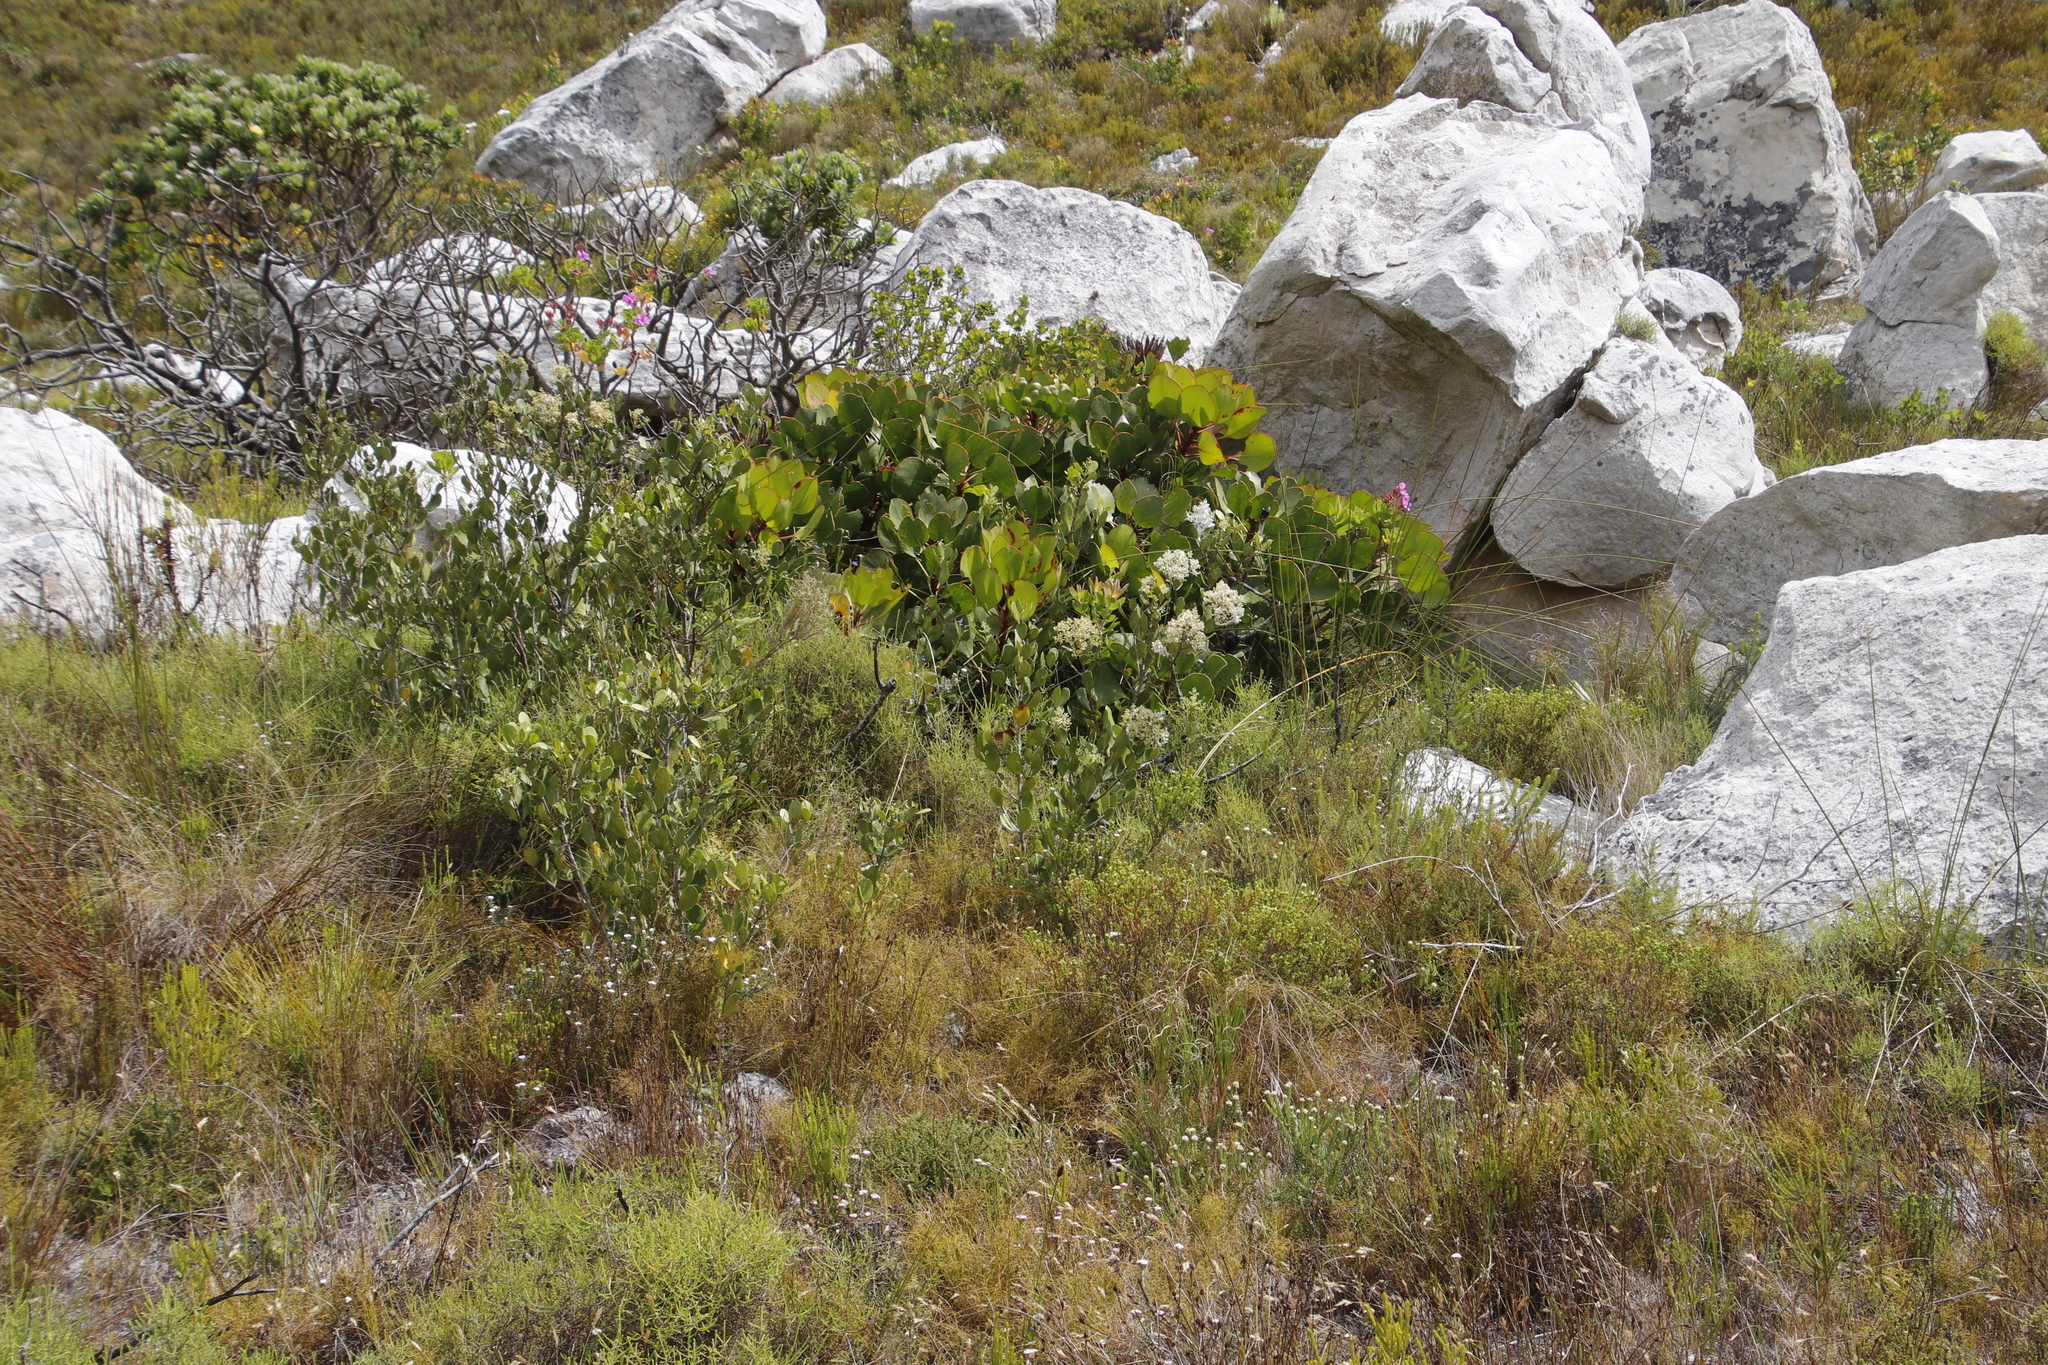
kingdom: Plantae
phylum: Tracheophyta
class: Magnoliopsida
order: Lamiales
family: Oleaceae
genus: Olea
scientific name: Olea capensis
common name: Black ironwood
